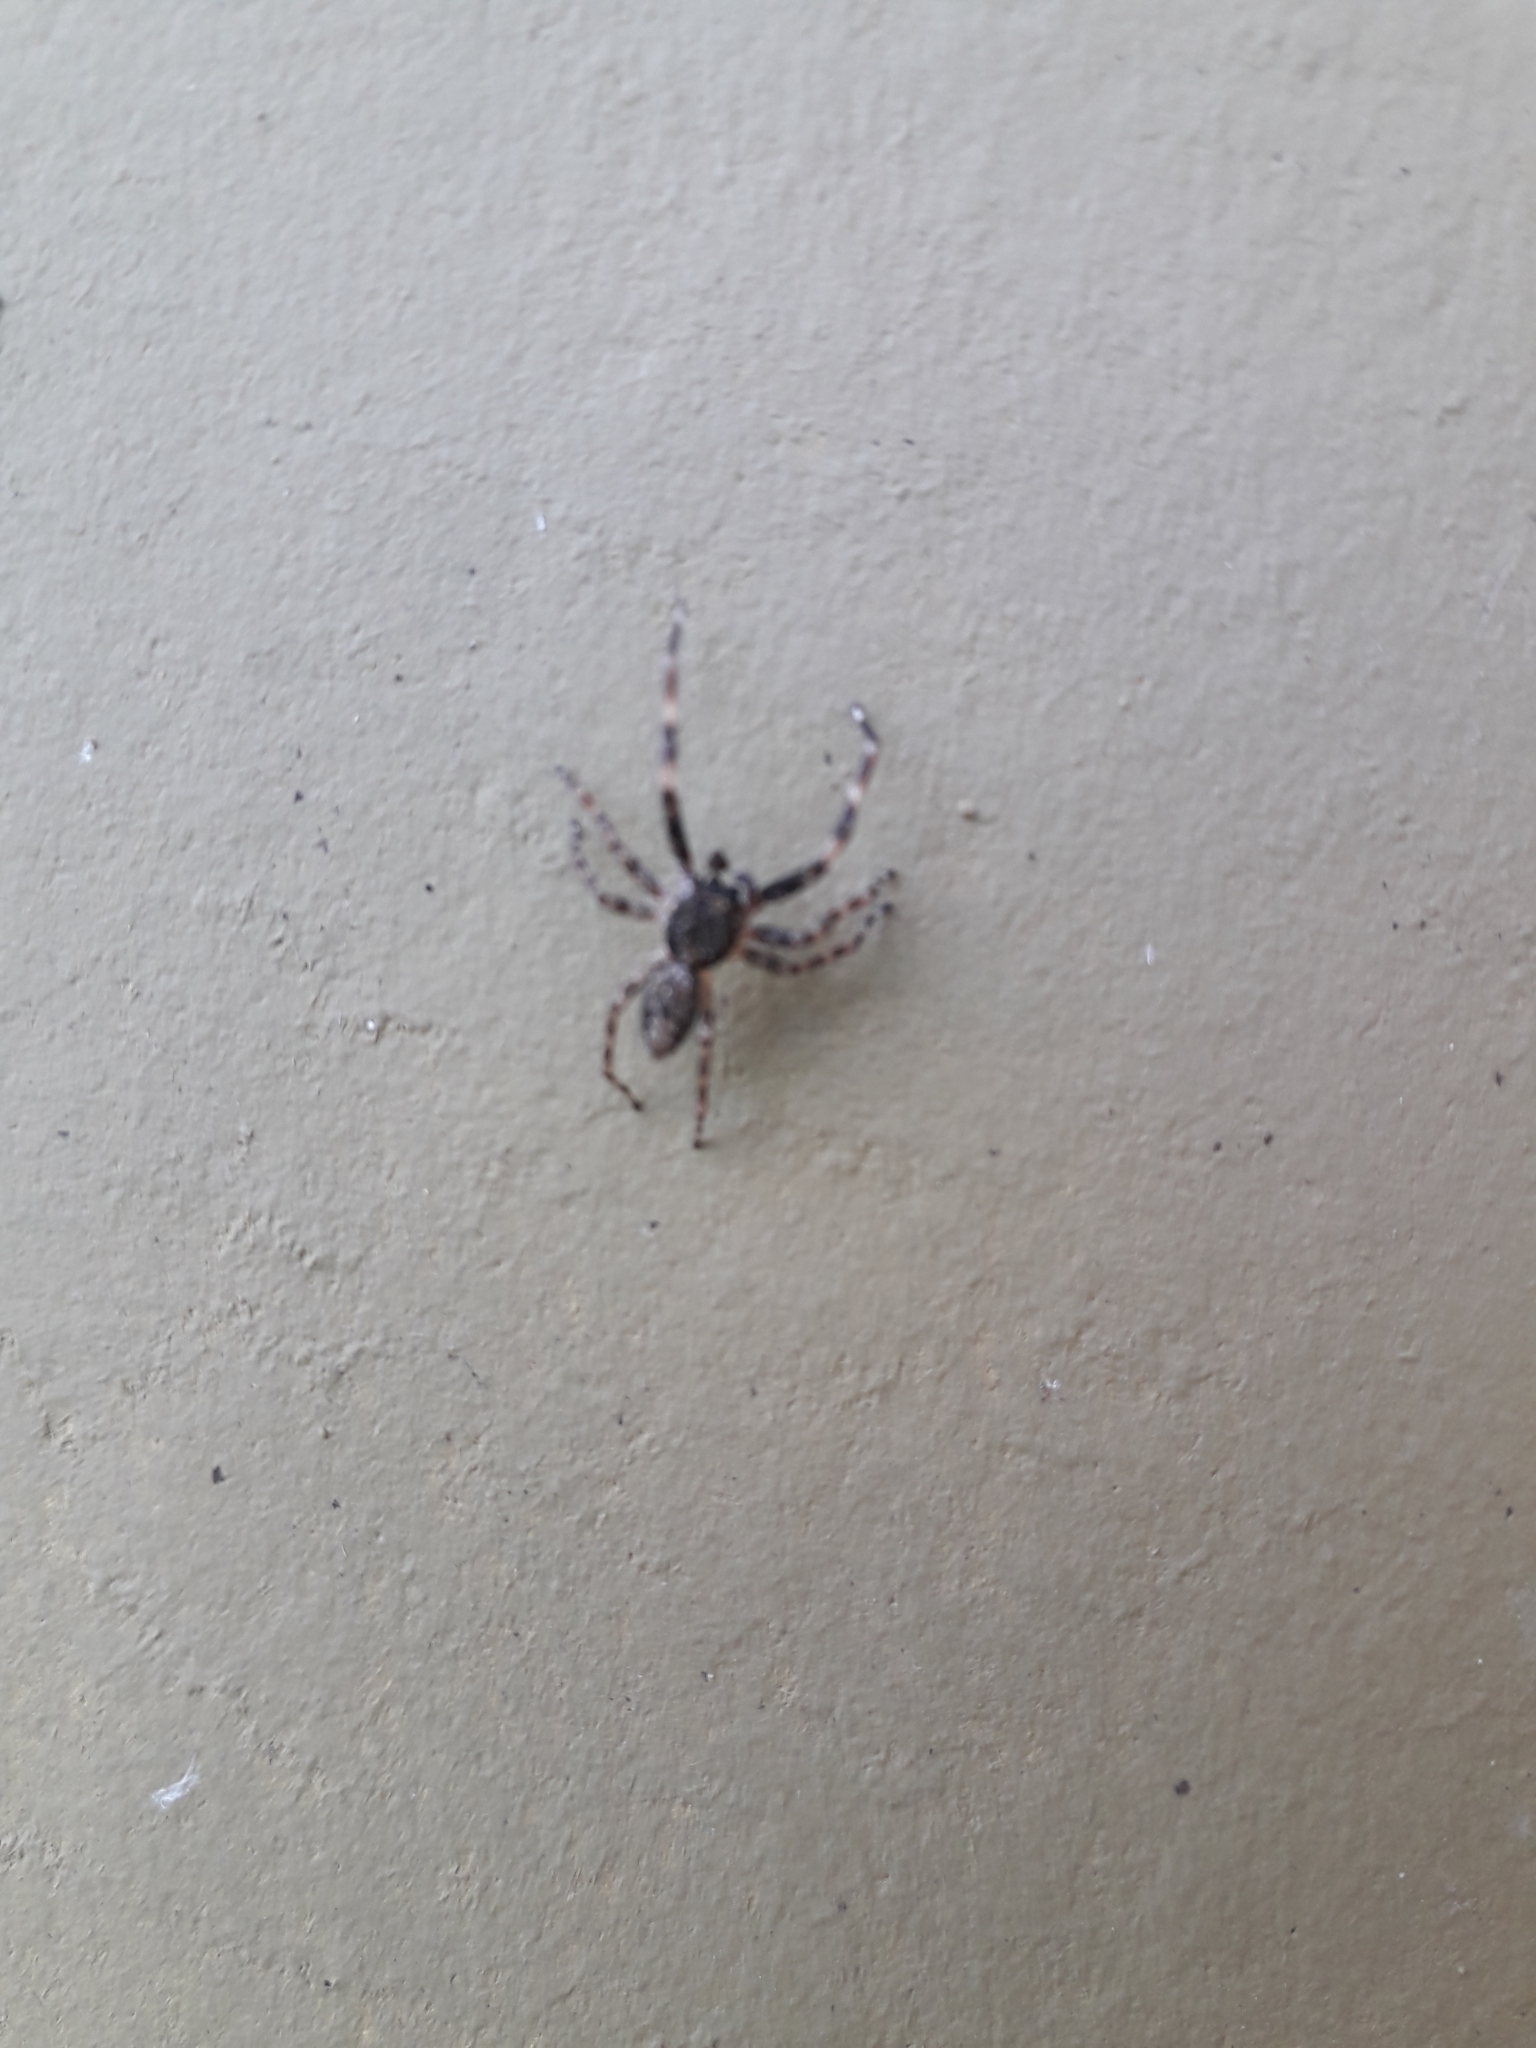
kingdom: Animalia
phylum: Arthropoda
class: Arachnida
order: Araneae
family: Salticidae
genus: Titanattus
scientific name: Titanattus andinus
